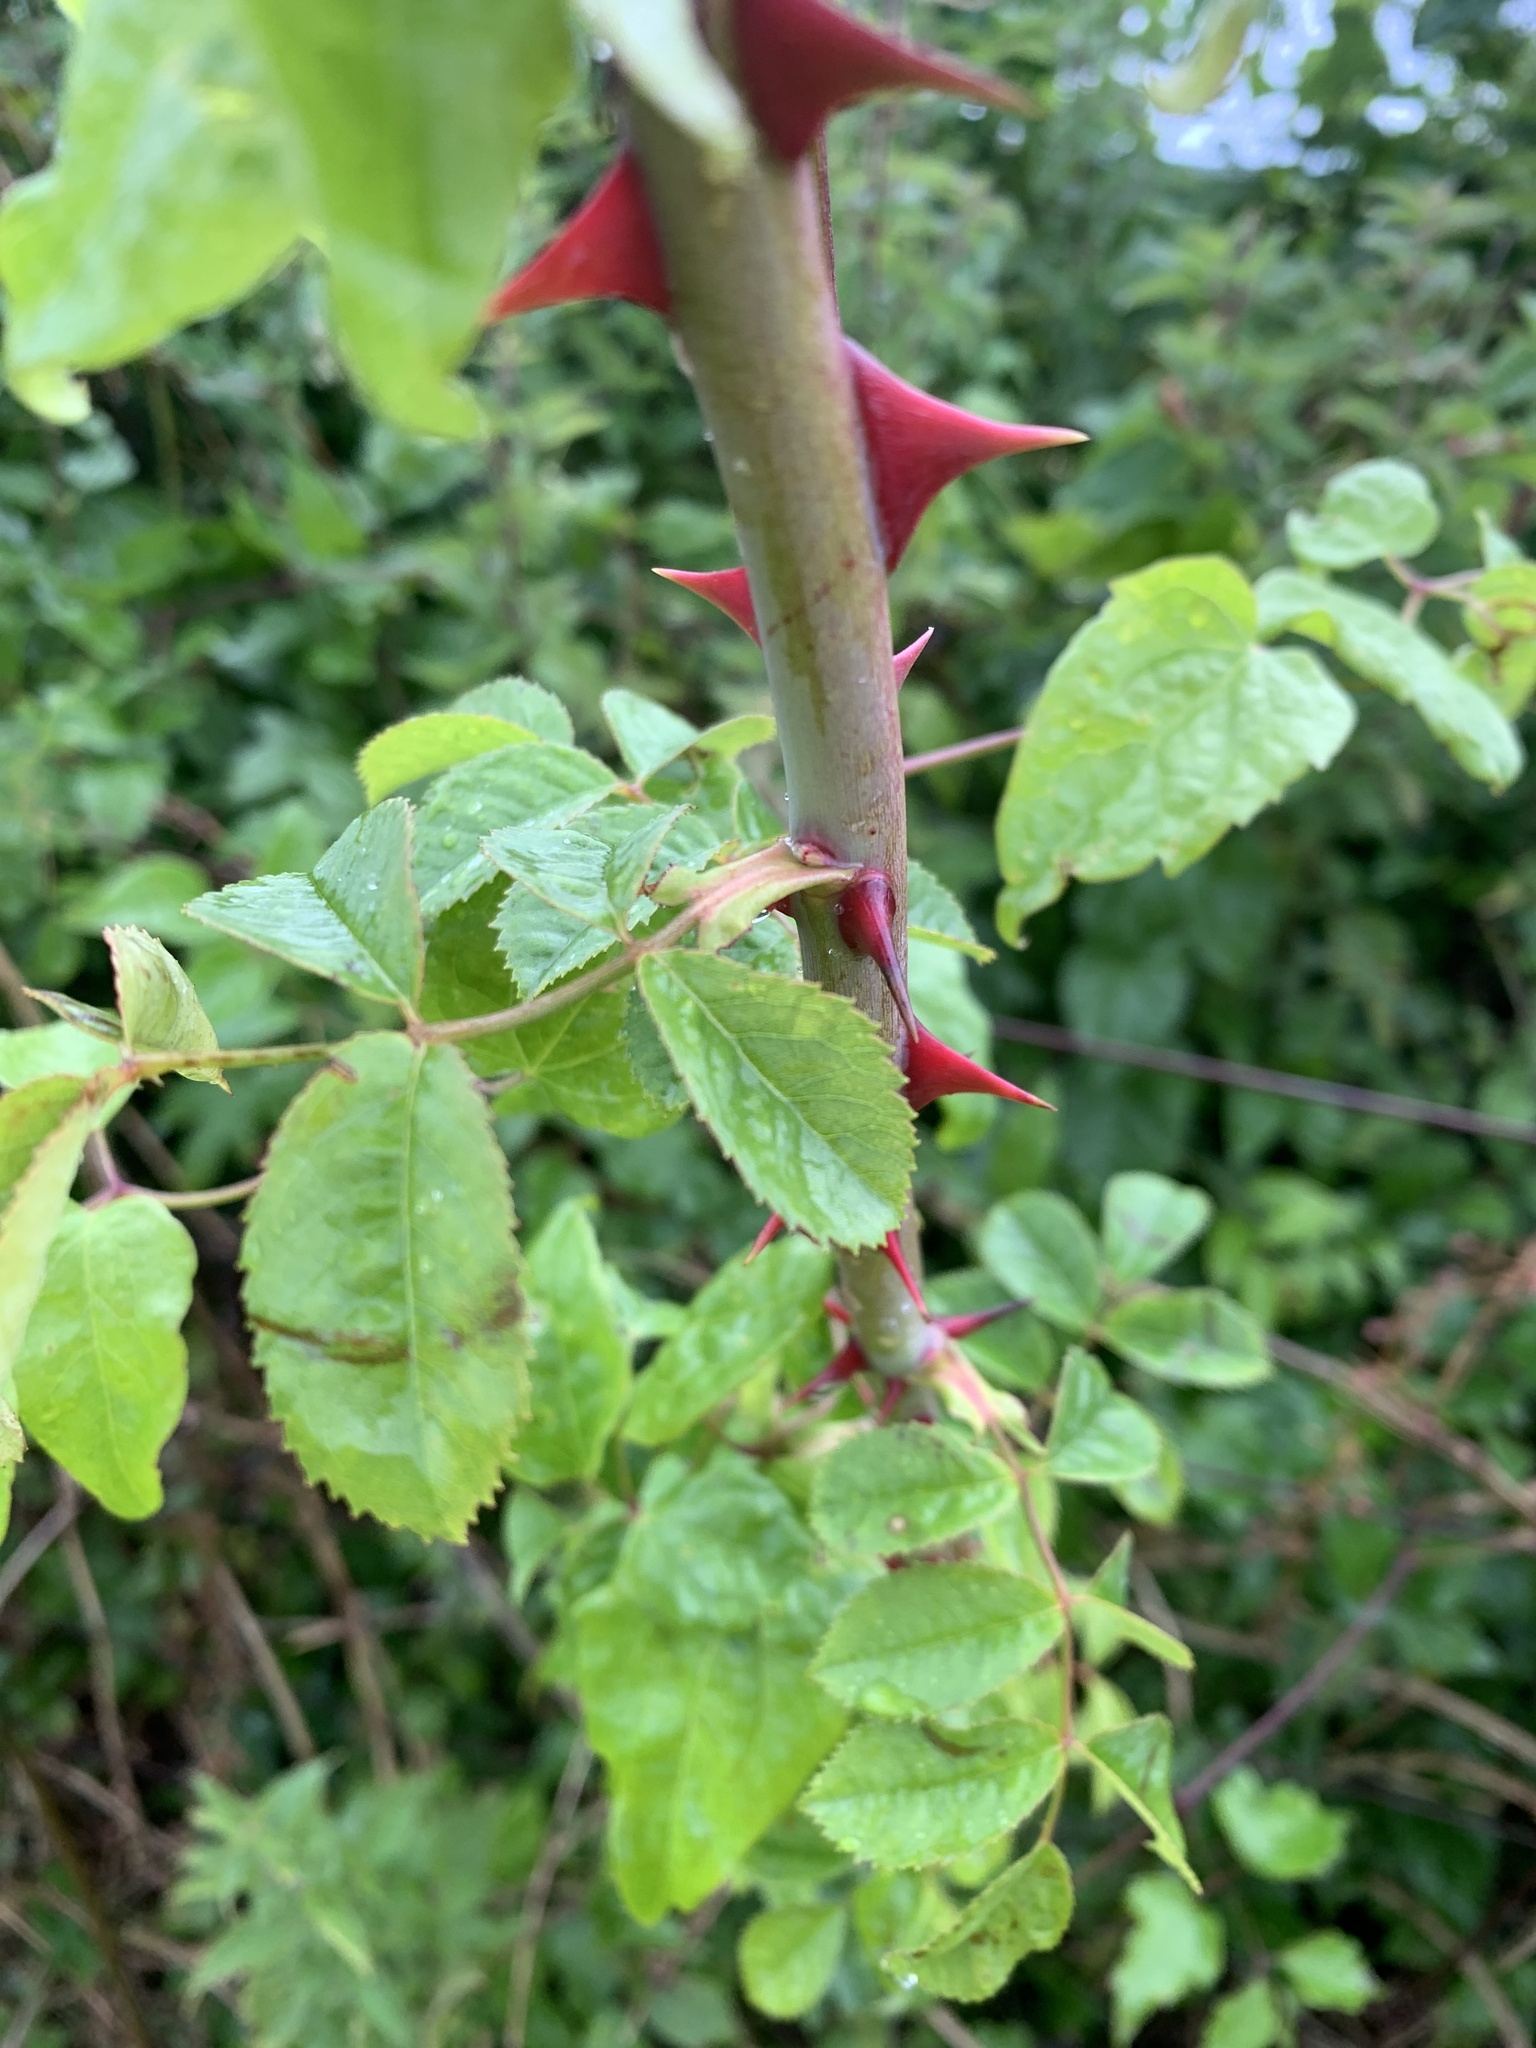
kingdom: Plantae
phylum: Tracheophyta
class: Magnoliopsida
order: Rosales
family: Rosaceae
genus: Rosa
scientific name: Rosa canina
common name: Dog rose
